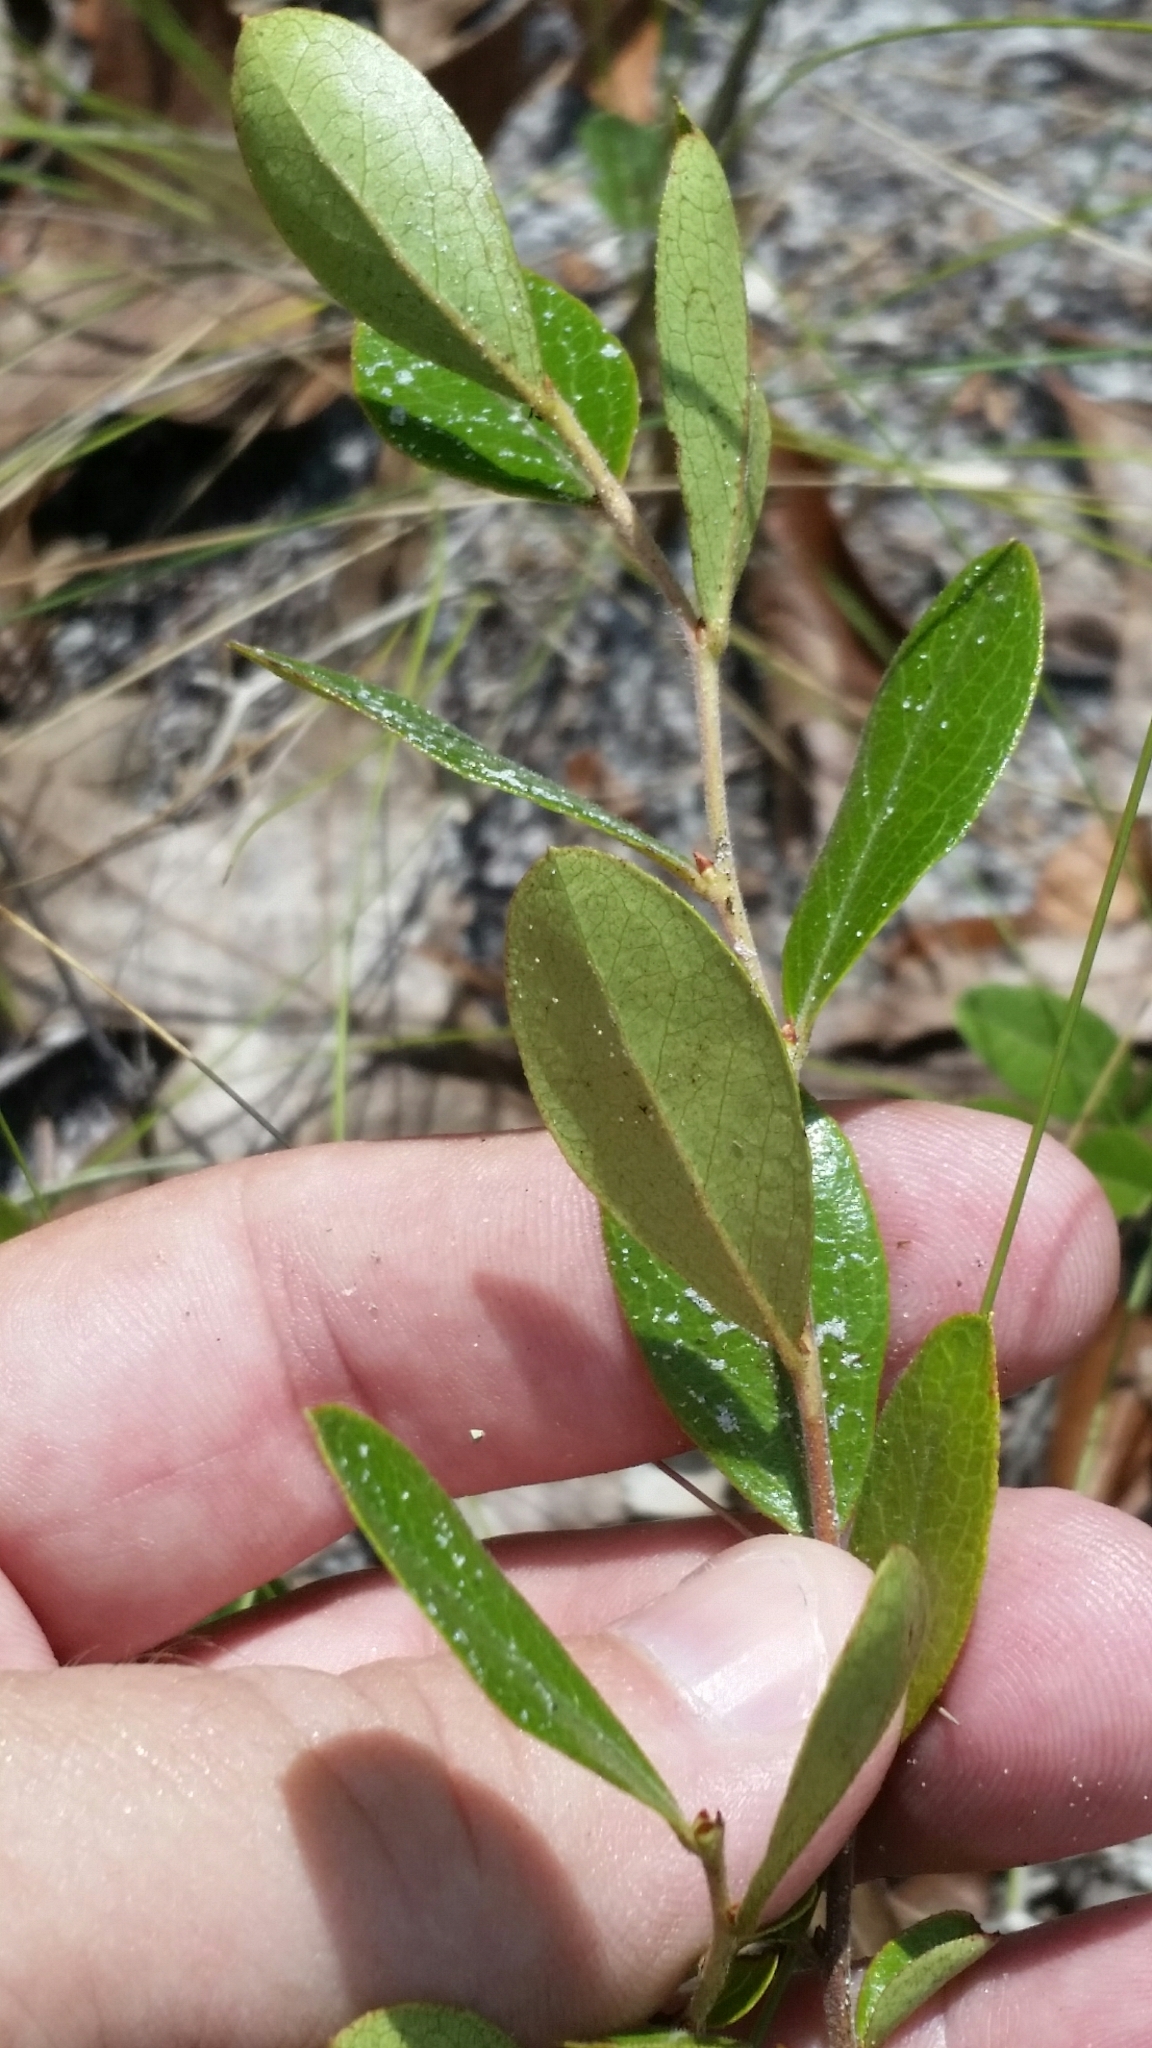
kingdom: Plantae
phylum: Tracheophyta
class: Magnoliopsida
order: Ericales
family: Ericaceae
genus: Gaylussacia
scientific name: Gaylussacia dumosa
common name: Dwarf huckleberry
